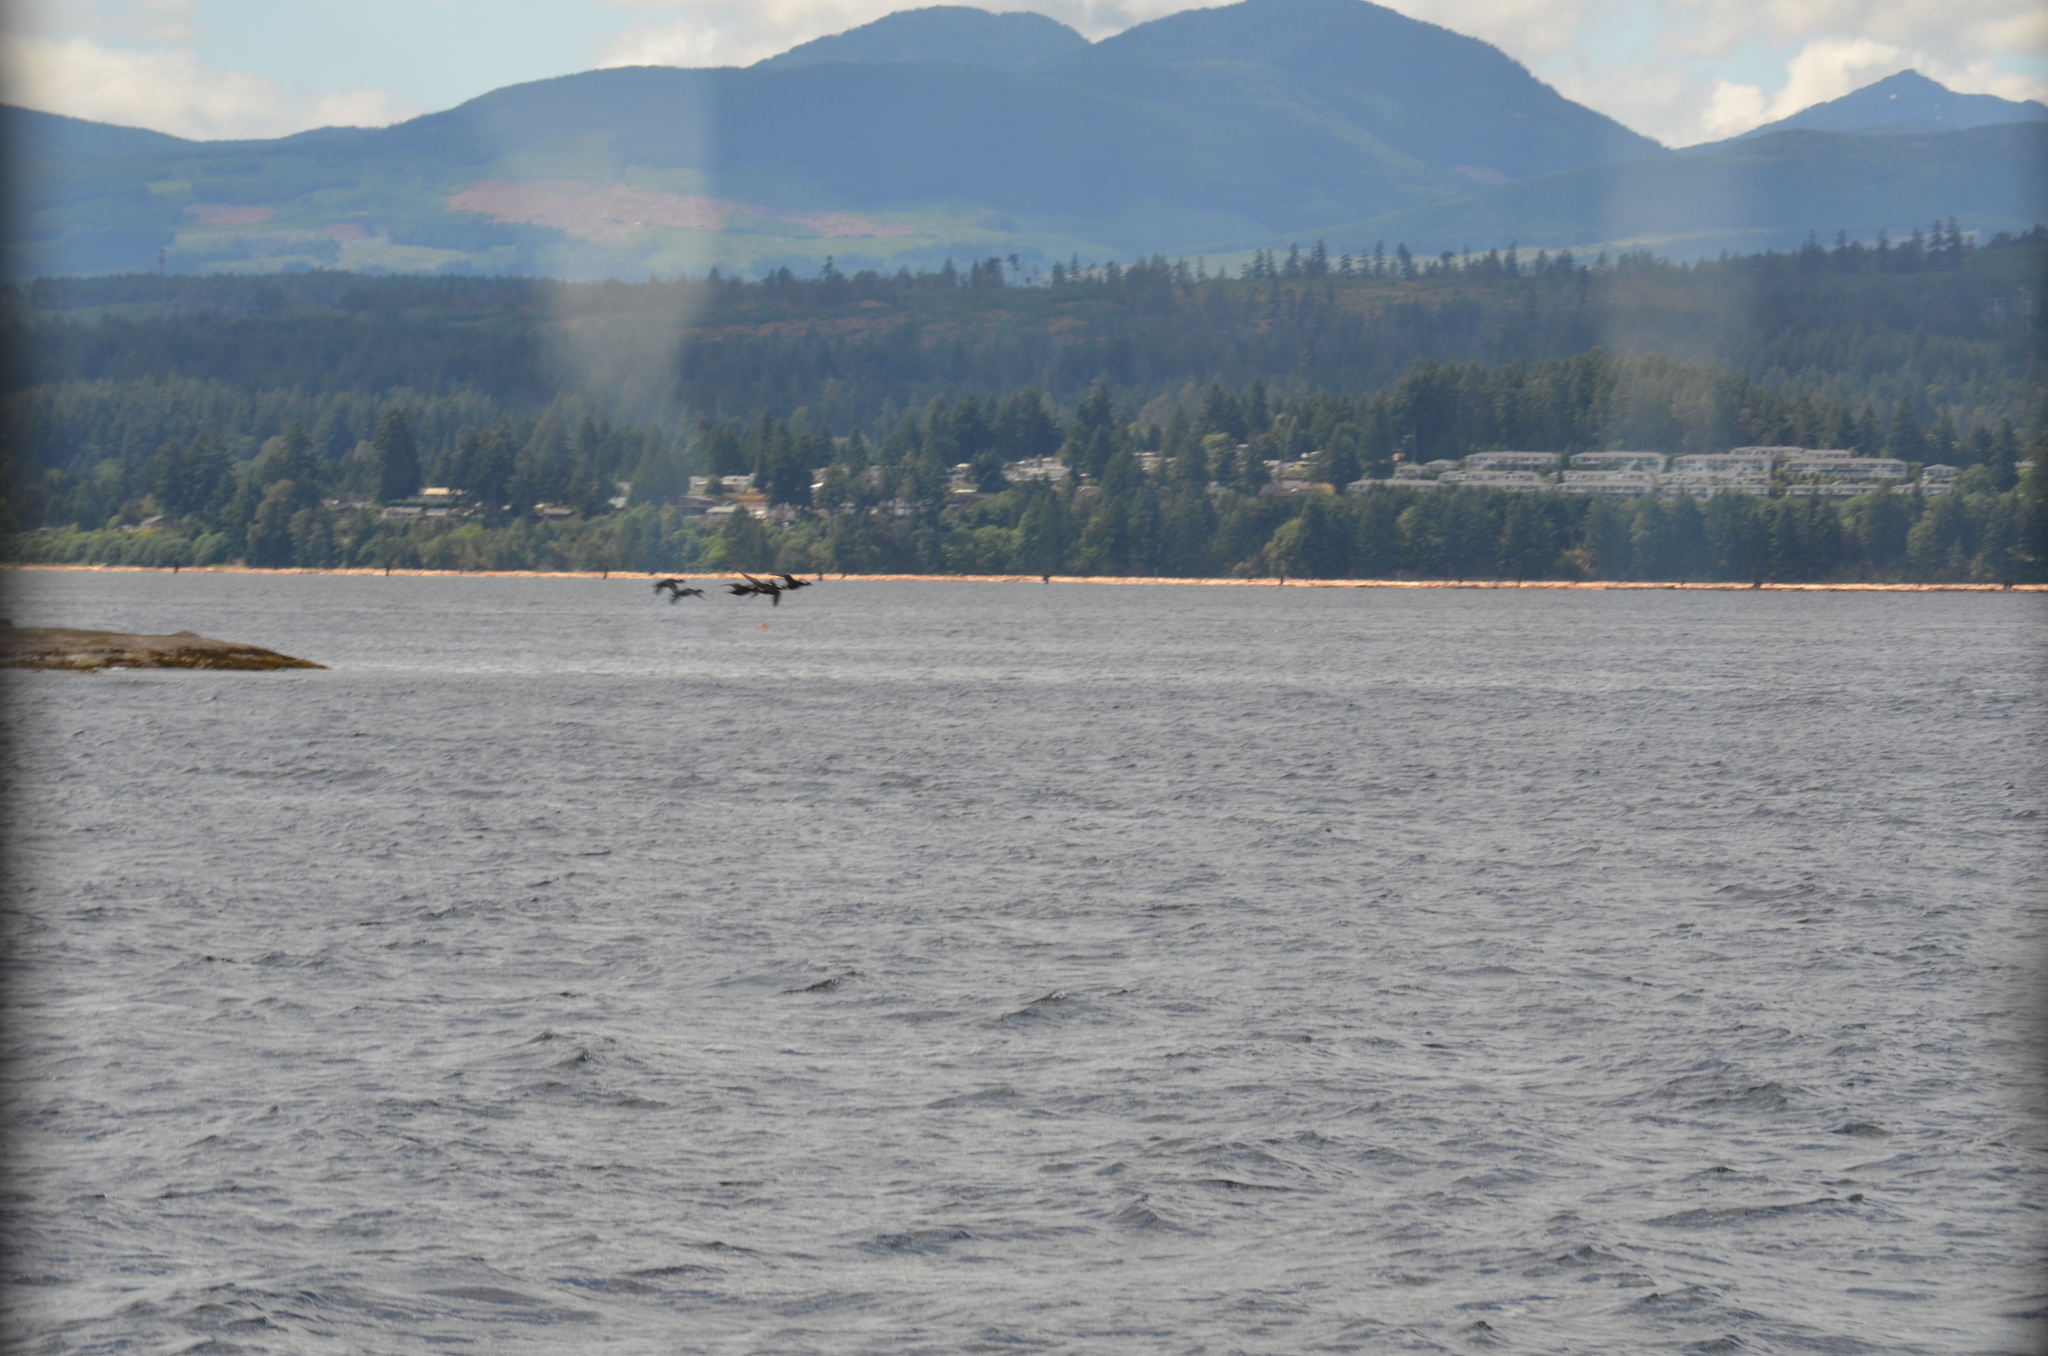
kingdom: Animalia
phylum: Chordata
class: Aves
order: Anseriformes
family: Anatidae
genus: Melanitta
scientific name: Melanitta perspicillata
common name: Surf scoter
